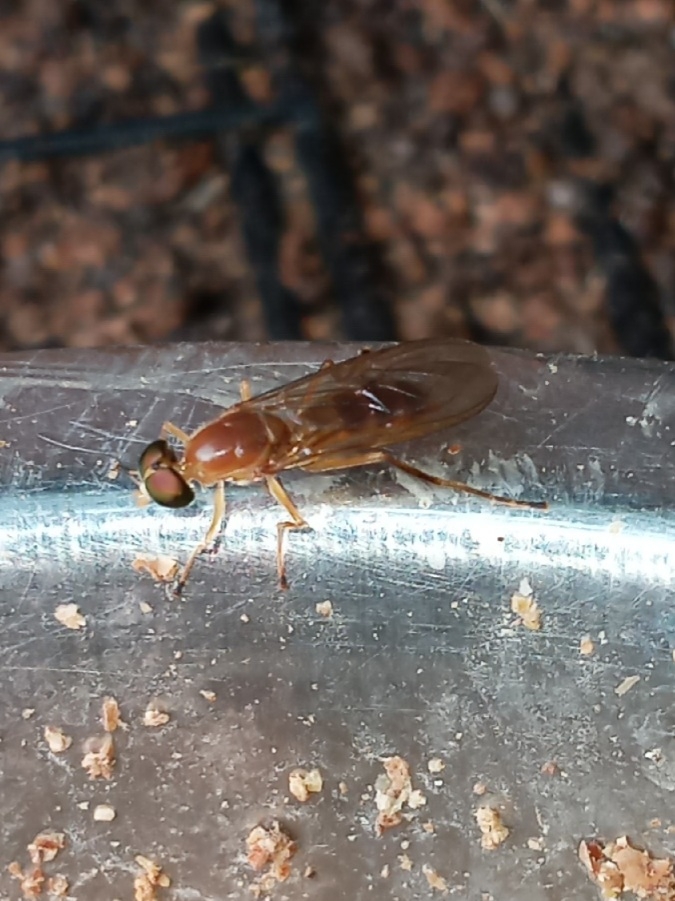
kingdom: Animalia
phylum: Arthropoda
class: Insecta
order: Diptera
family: Stratiomyidae
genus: Ptecticus
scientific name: Ptecticus trivittatus
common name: Compost fly
